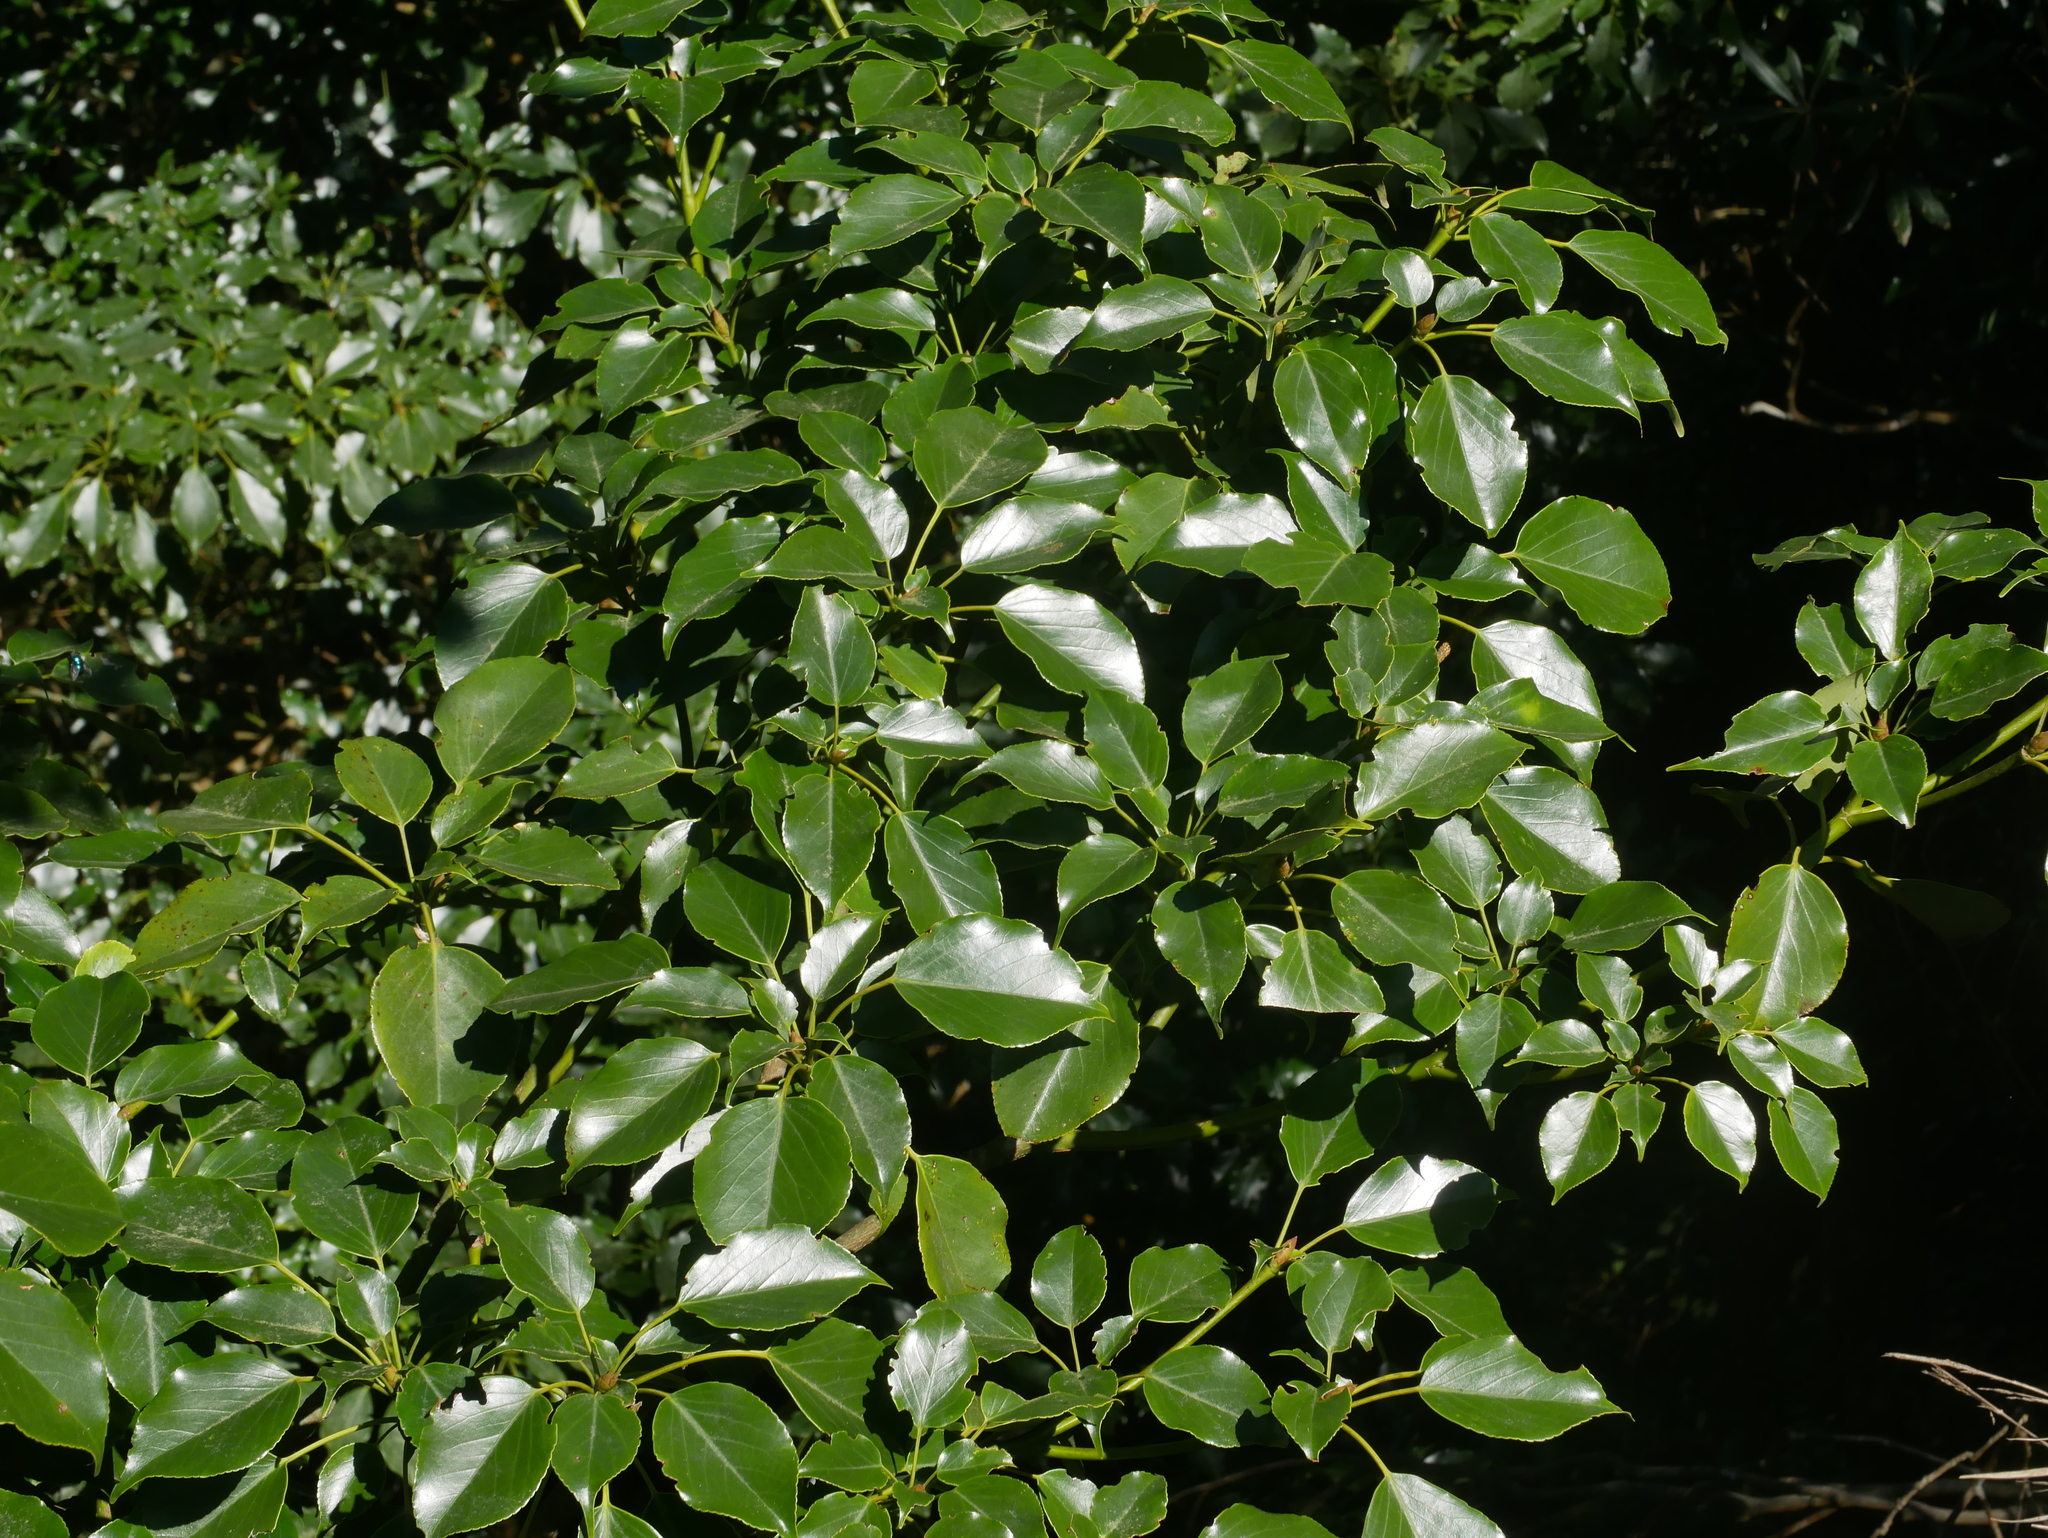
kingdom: Plantae
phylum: Tracheophyta
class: Magnoliopsida
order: Trochodendrales
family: Trochodendraceae
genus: Trochodendron
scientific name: Trochodendron aralioides
